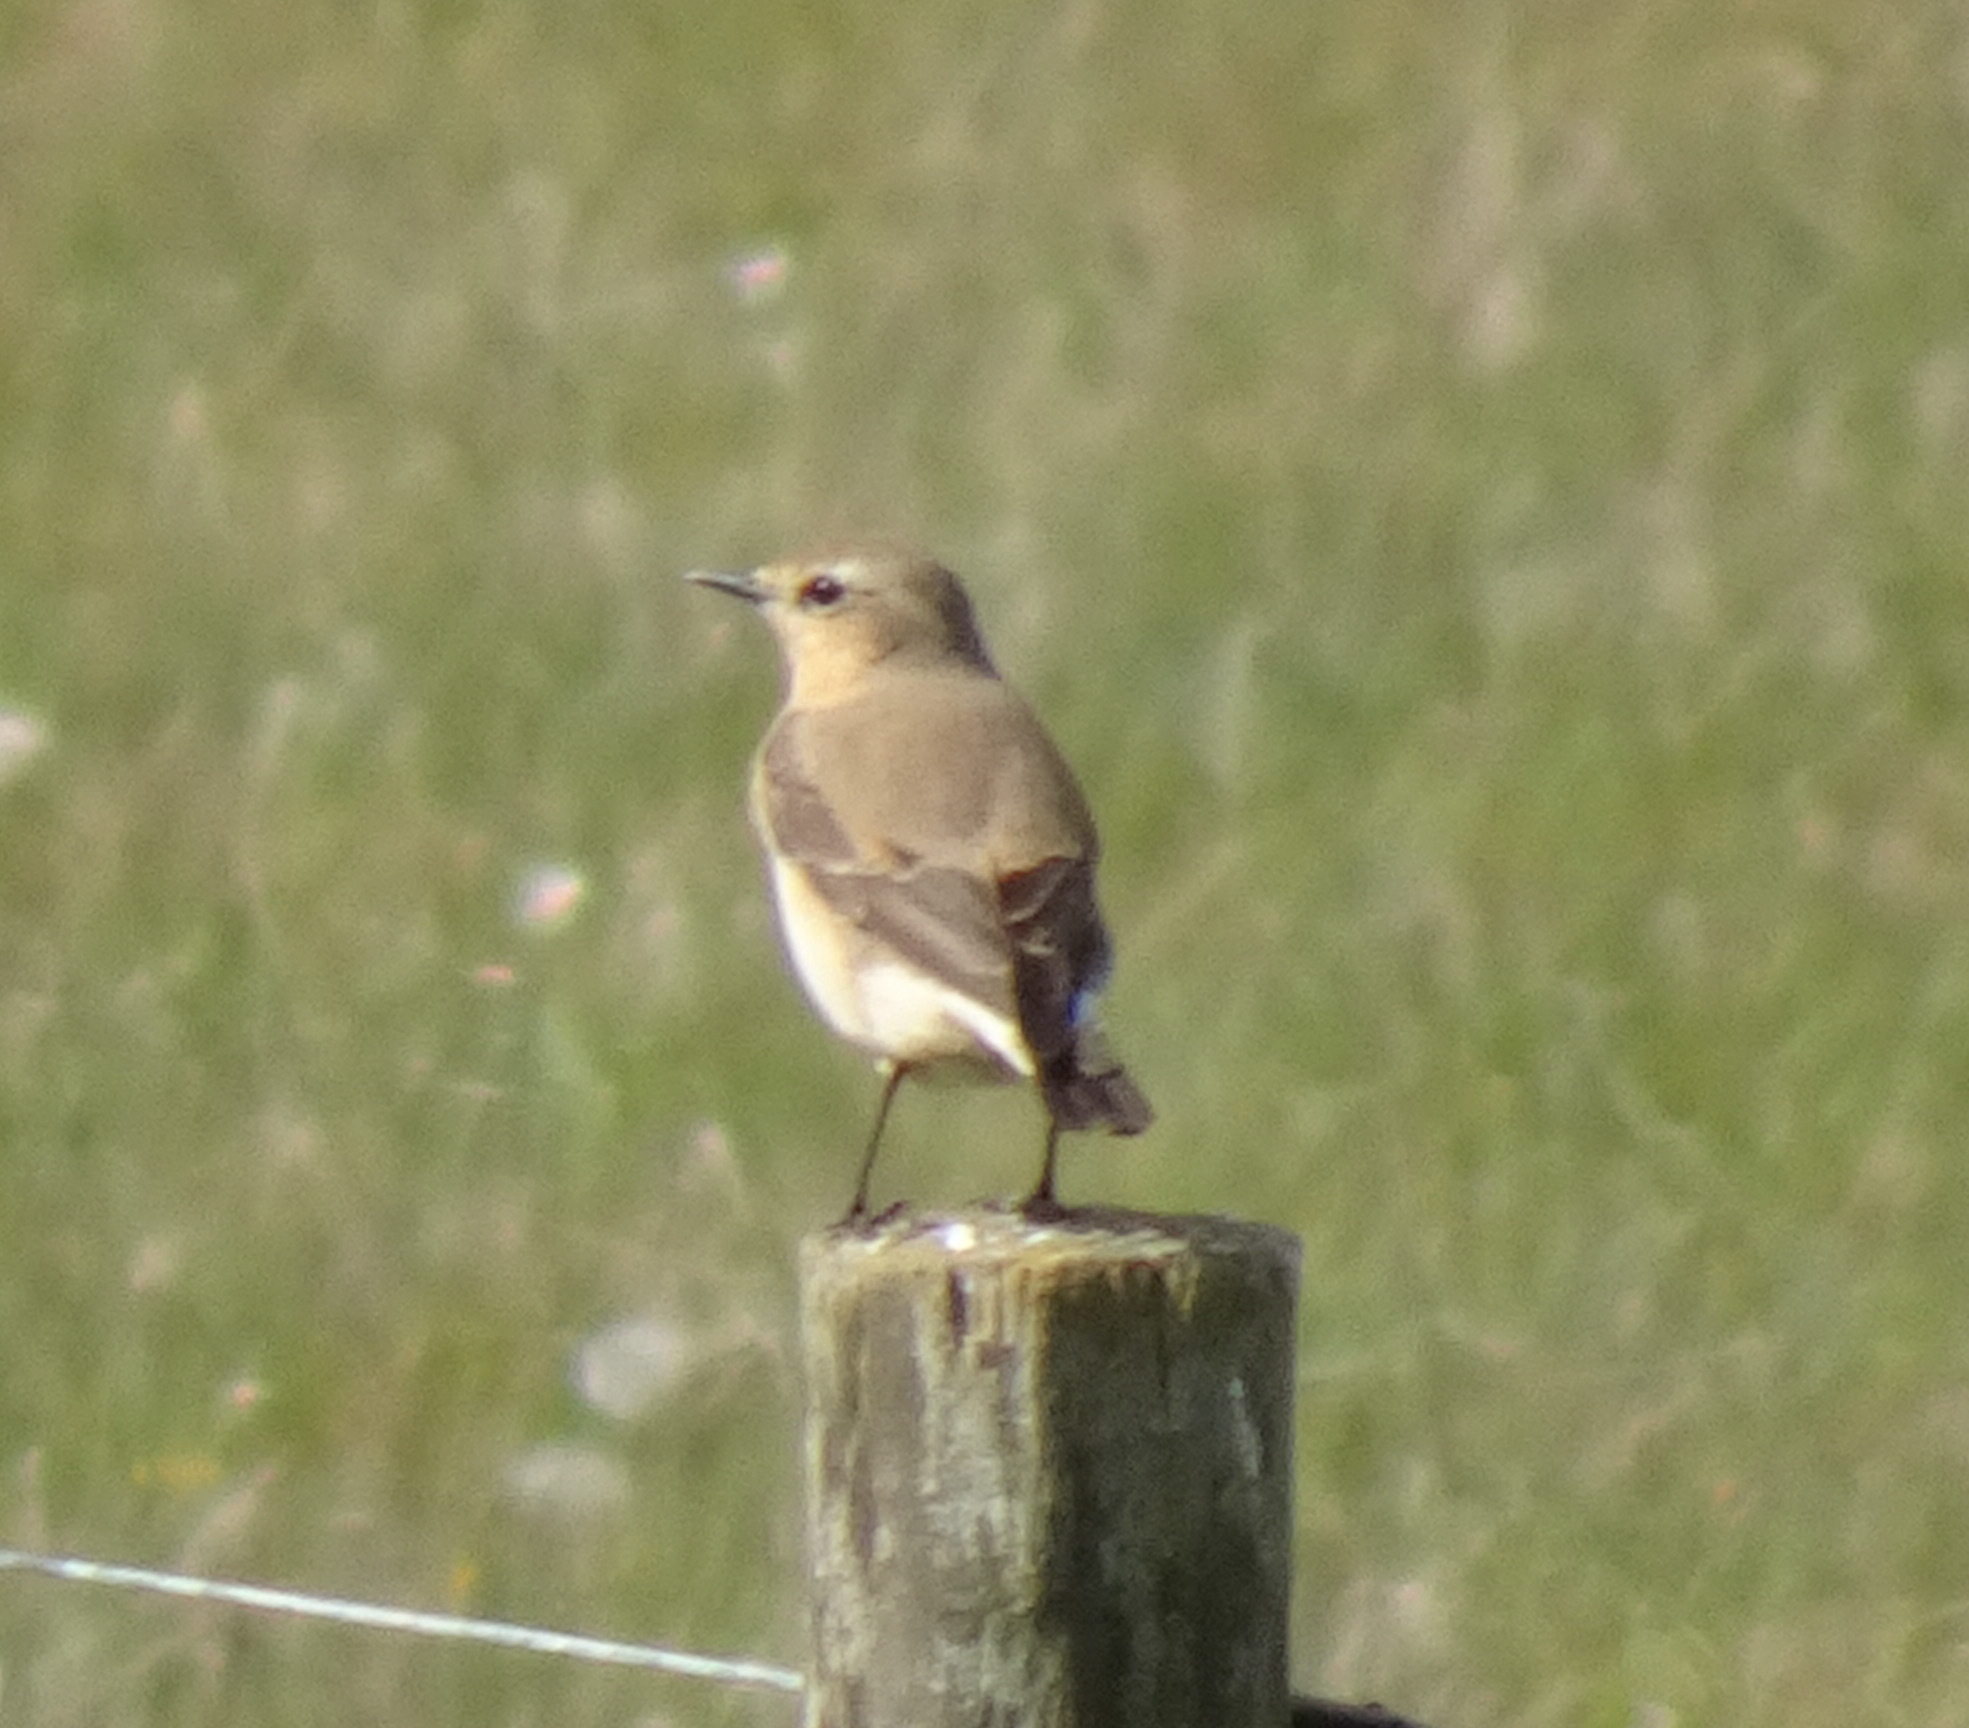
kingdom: Animalia
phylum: Chordata
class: Aves
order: Passeriformes
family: Muscicapidae
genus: Oenanthe
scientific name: Oenanthe oenanthe
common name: Northern wheatear
